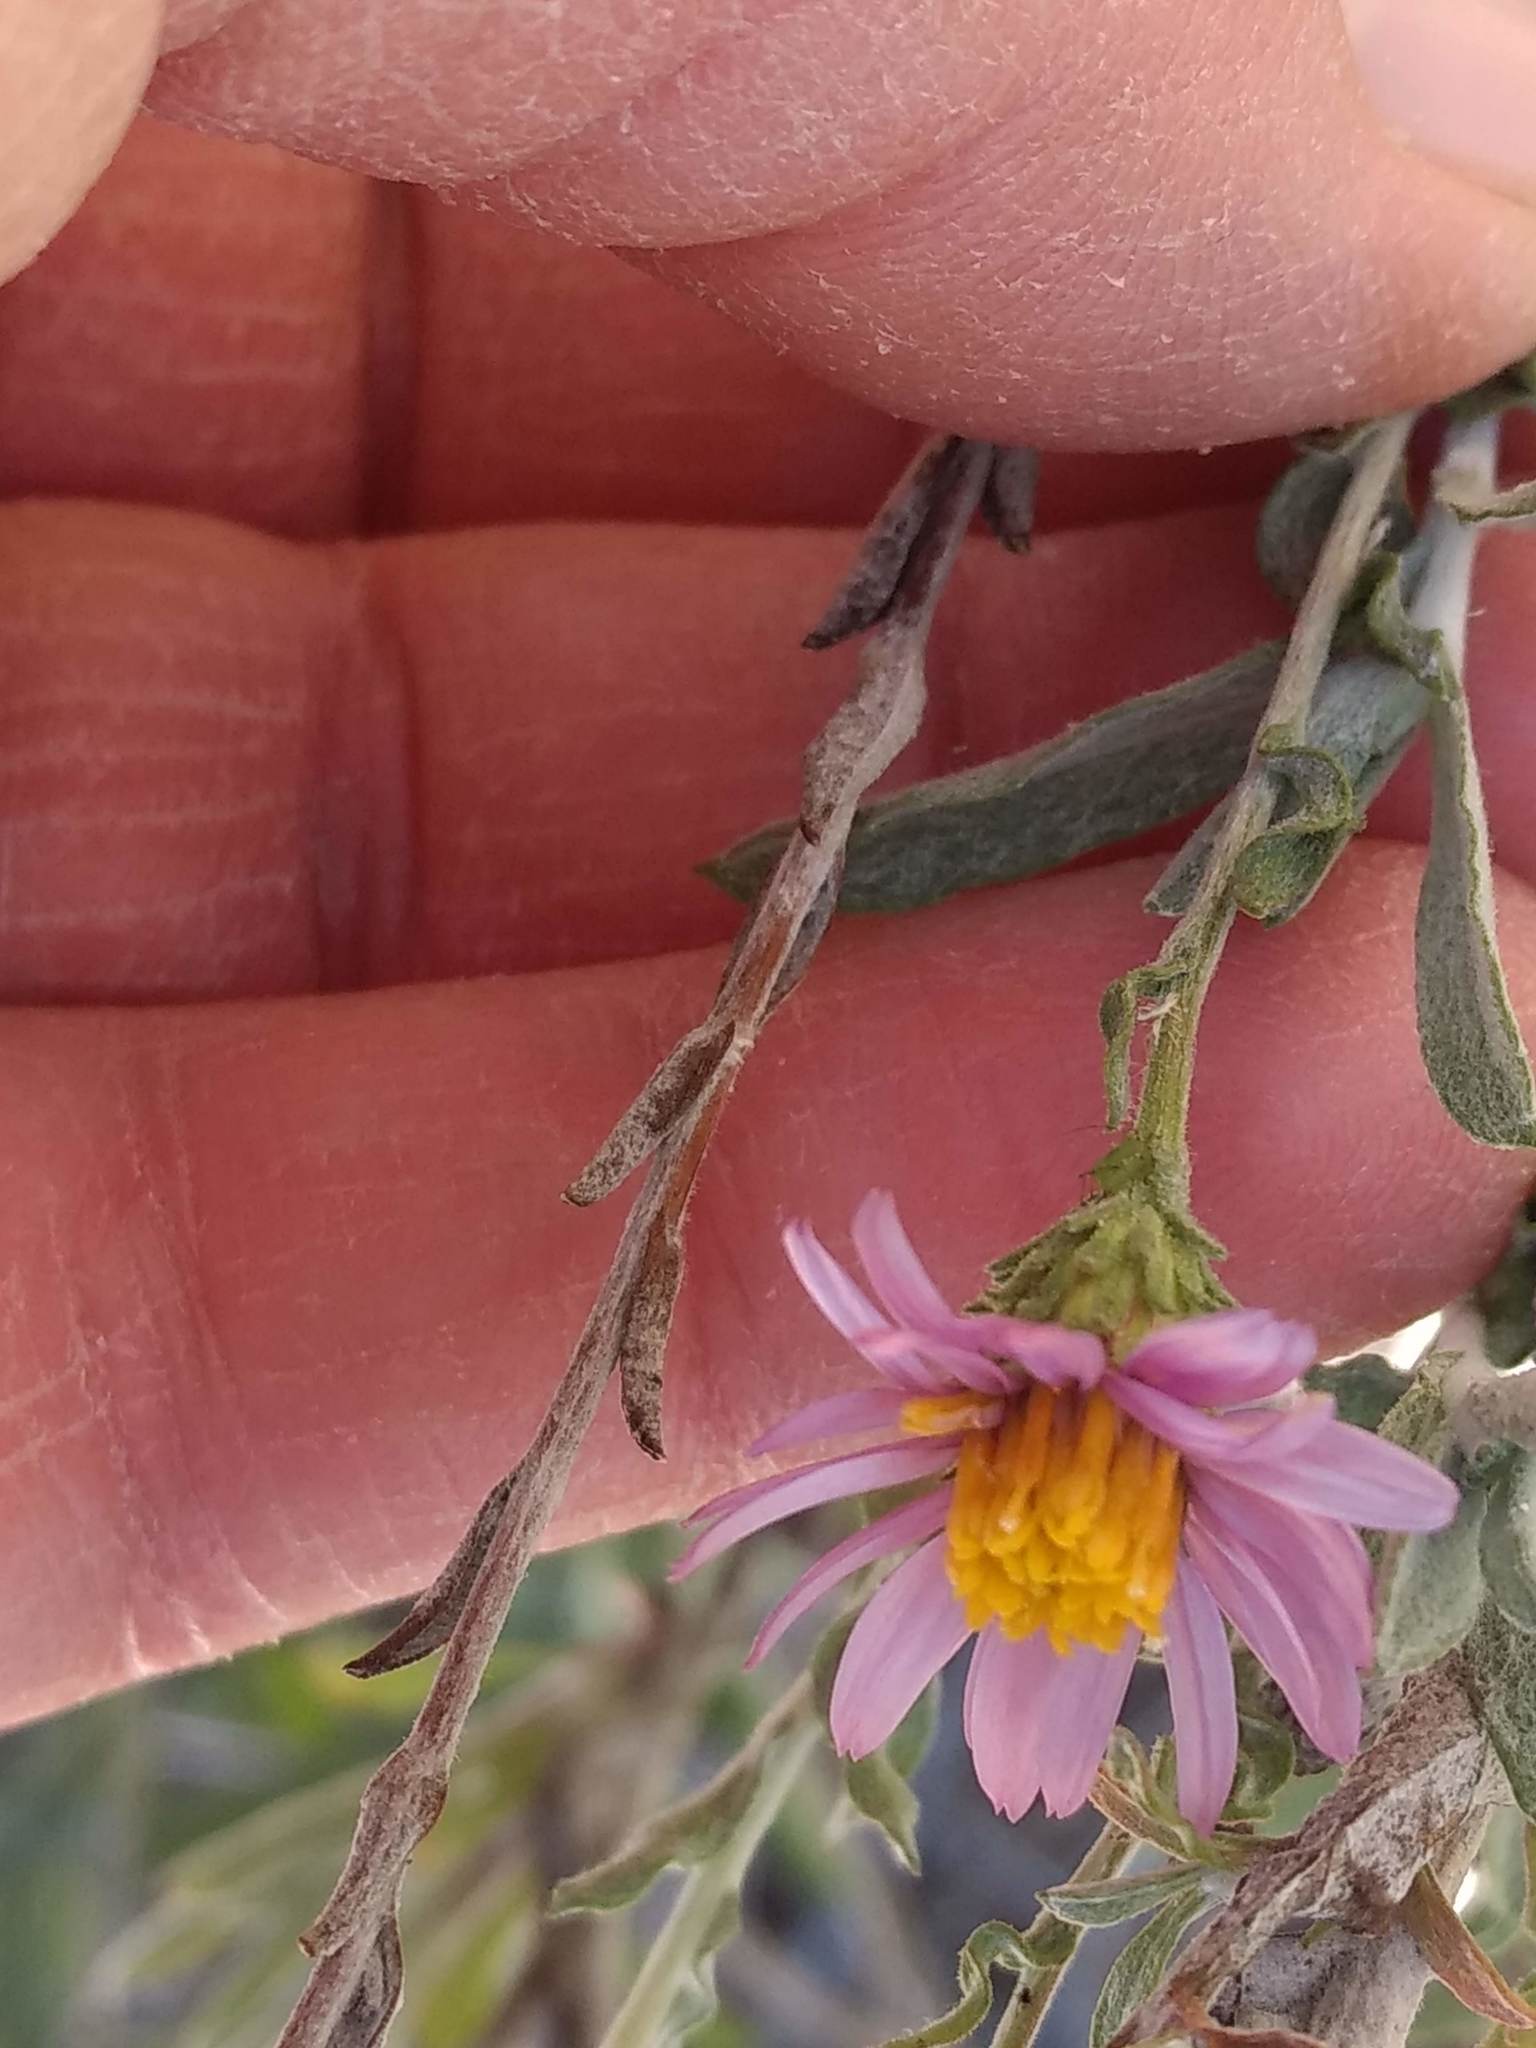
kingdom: Plantae
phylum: Tracheophyta
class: Magnoliopsida
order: Asterales
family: Asteraceae
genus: Corethrogyne
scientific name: Corethrogyne filaginifolia
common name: Sand-aster
